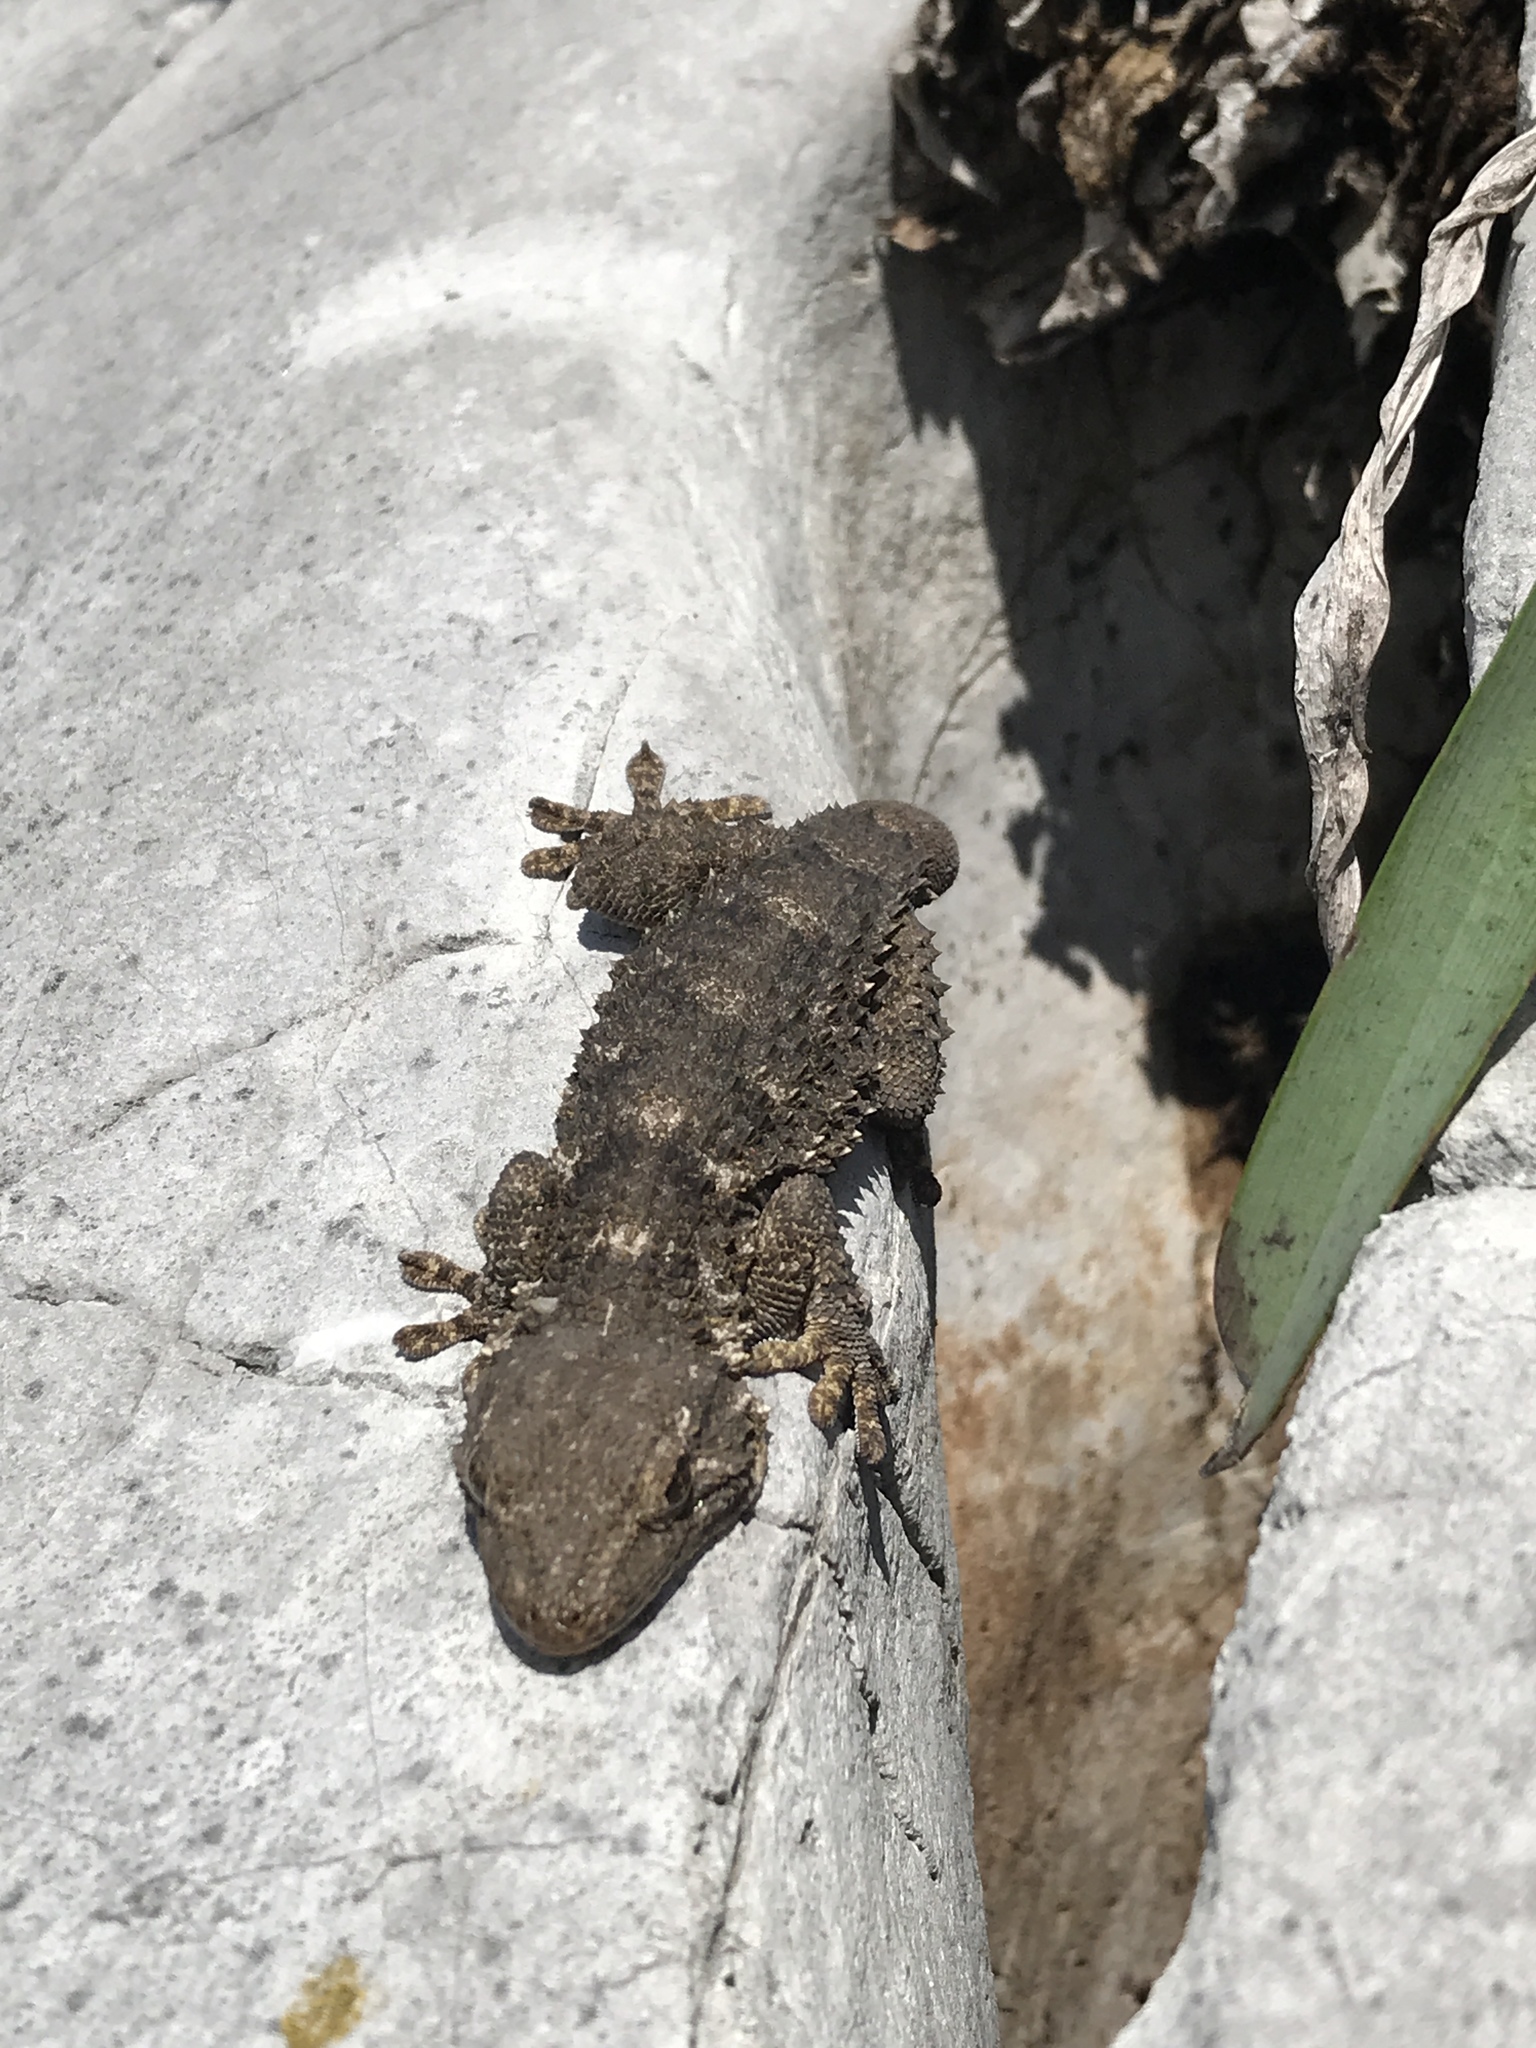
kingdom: Animalia
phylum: Chordata
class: Squamata
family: Phyllodactylidae
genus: Tarentola
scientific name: Tarentola mauritanica
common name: Moorish gecko
